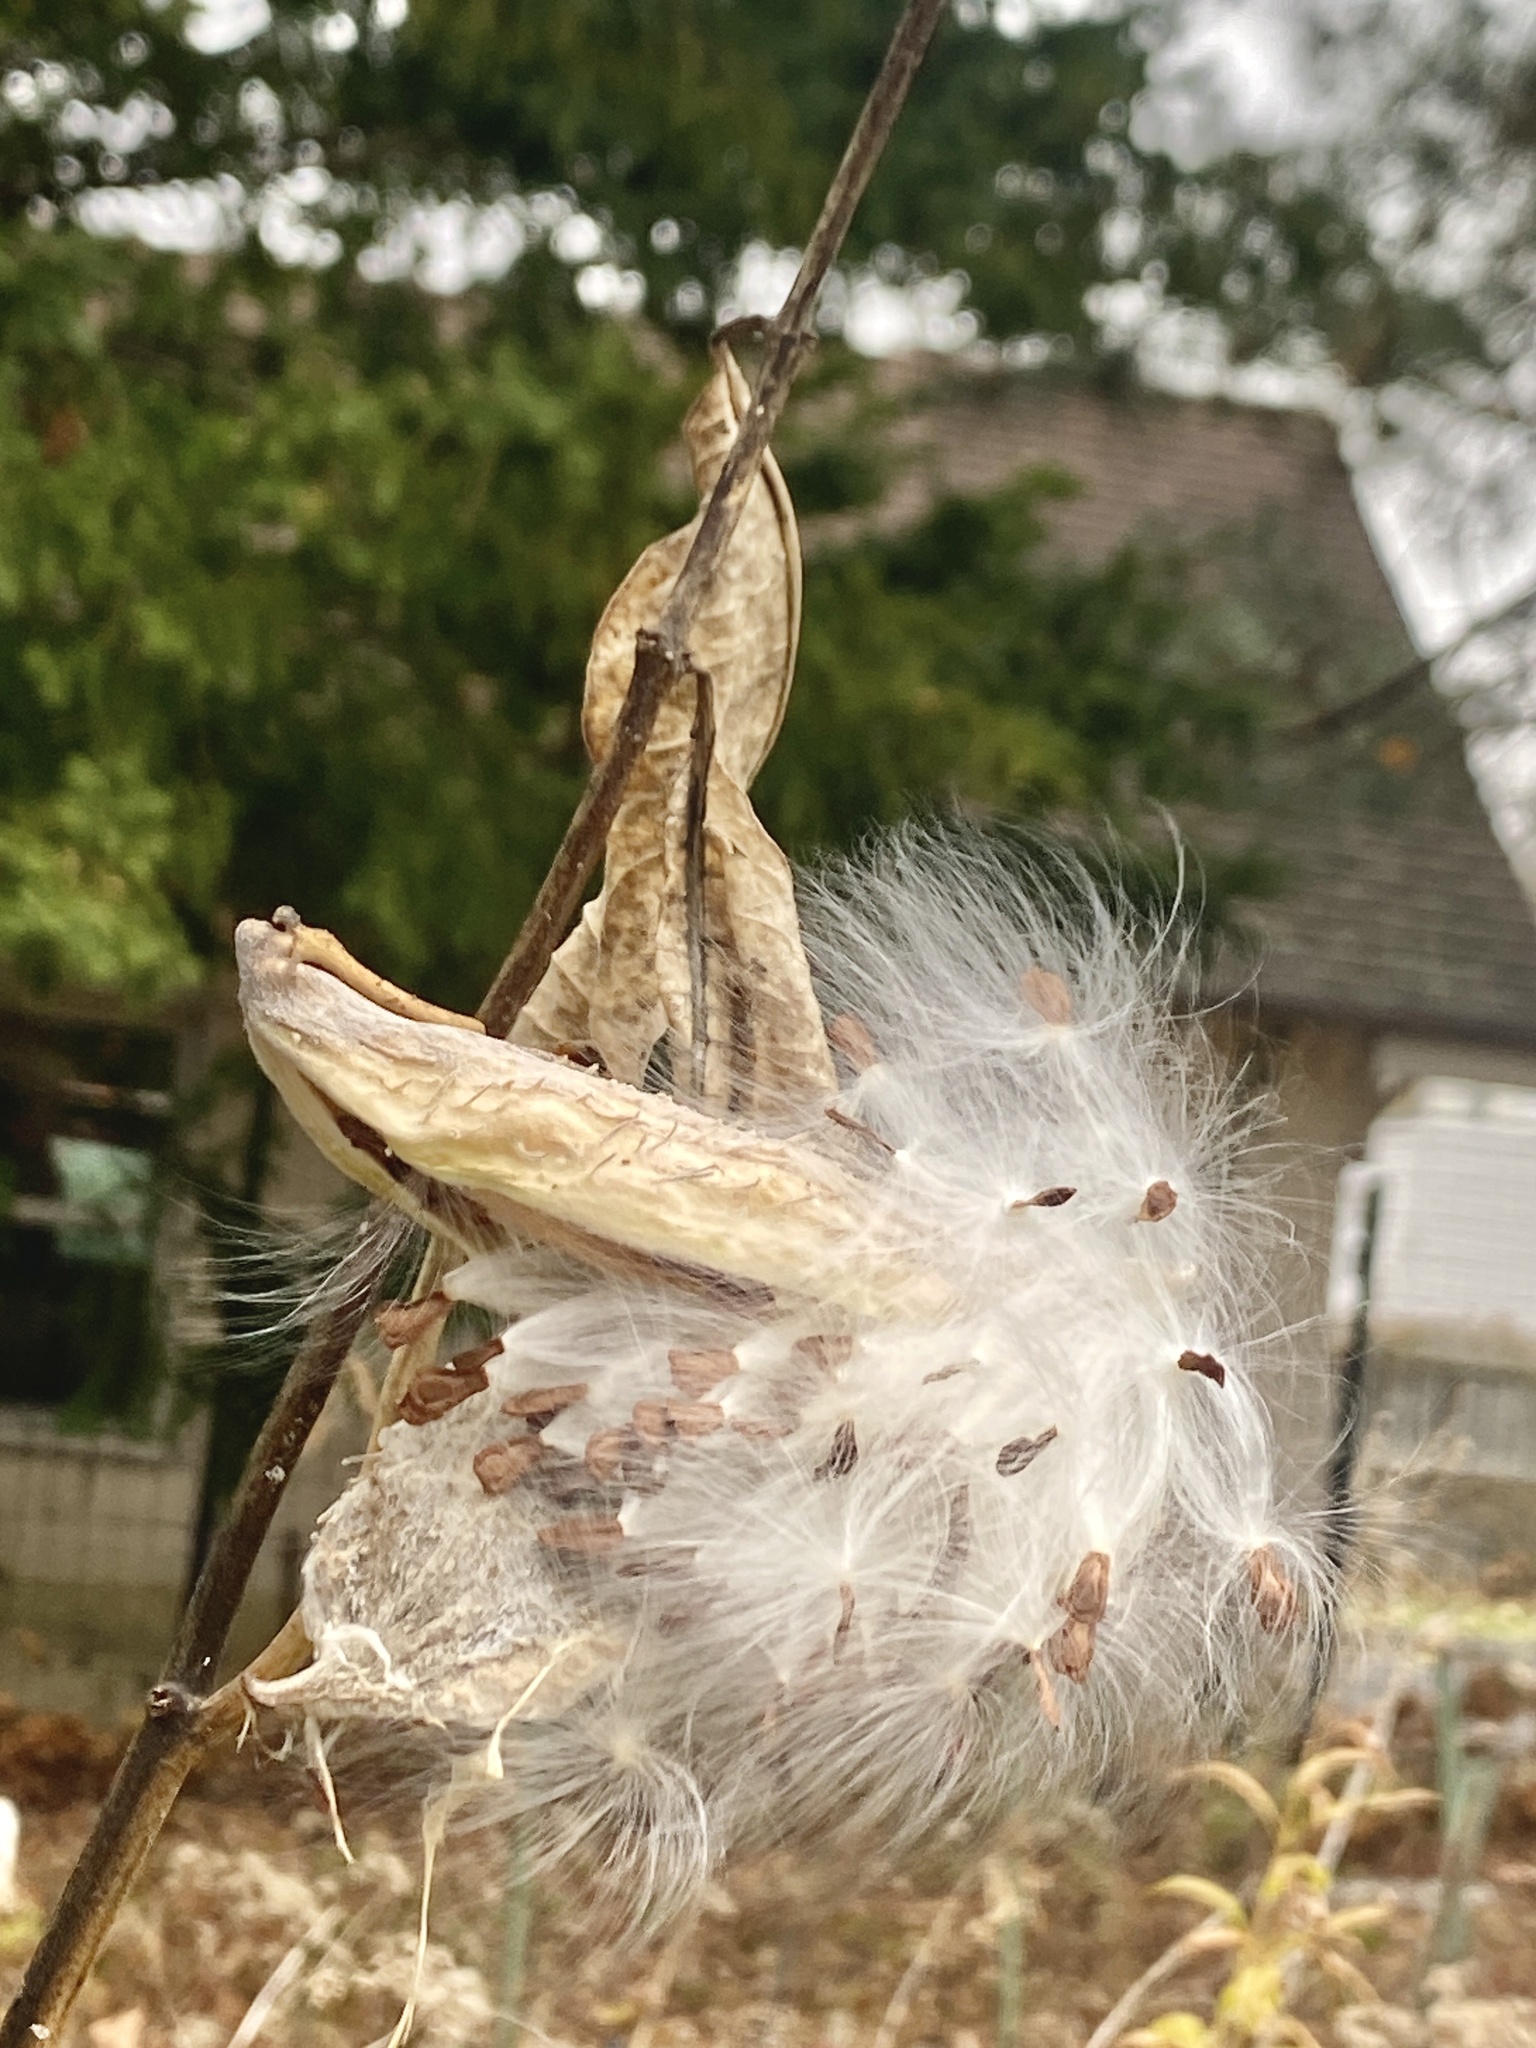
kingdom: Plantae
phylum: Tracheophyta
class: Magnoliopsida
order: Gentianales
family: Apocynaceae
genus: Asclepias
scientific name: Asclepias syriaca
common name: Common milkweed
